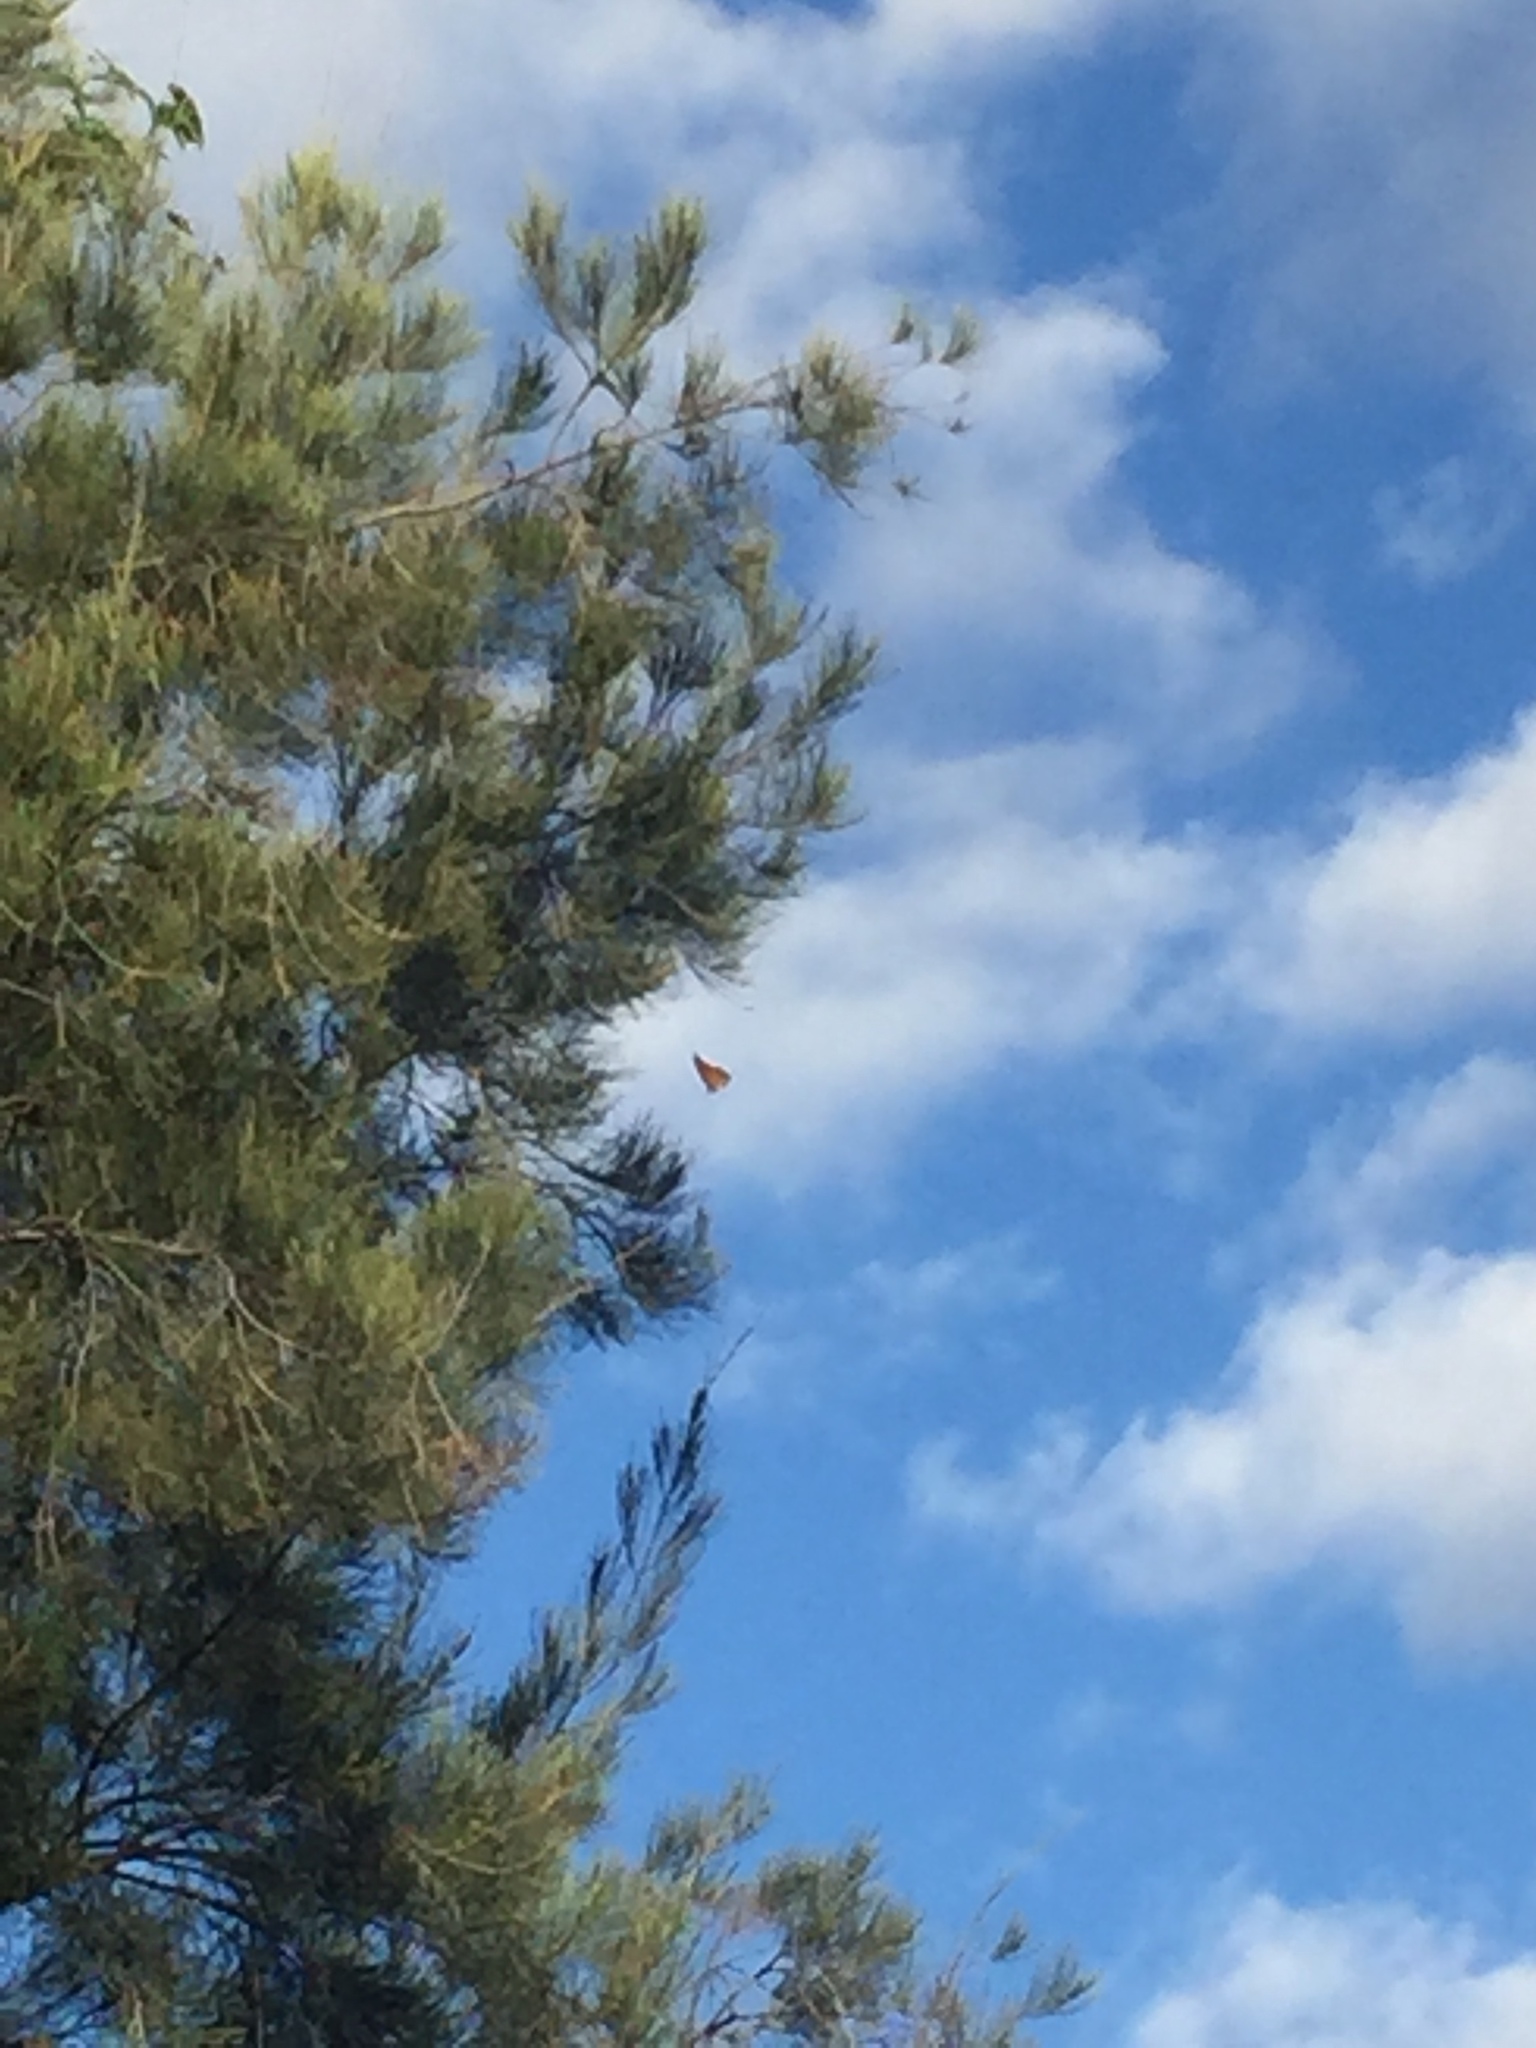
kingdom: Animalia
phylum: Arthropoda
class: Insecta
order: Lepidoptera
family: Nymphalidae
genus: Danaus
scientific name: Danaus plexippus
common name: Monarch
